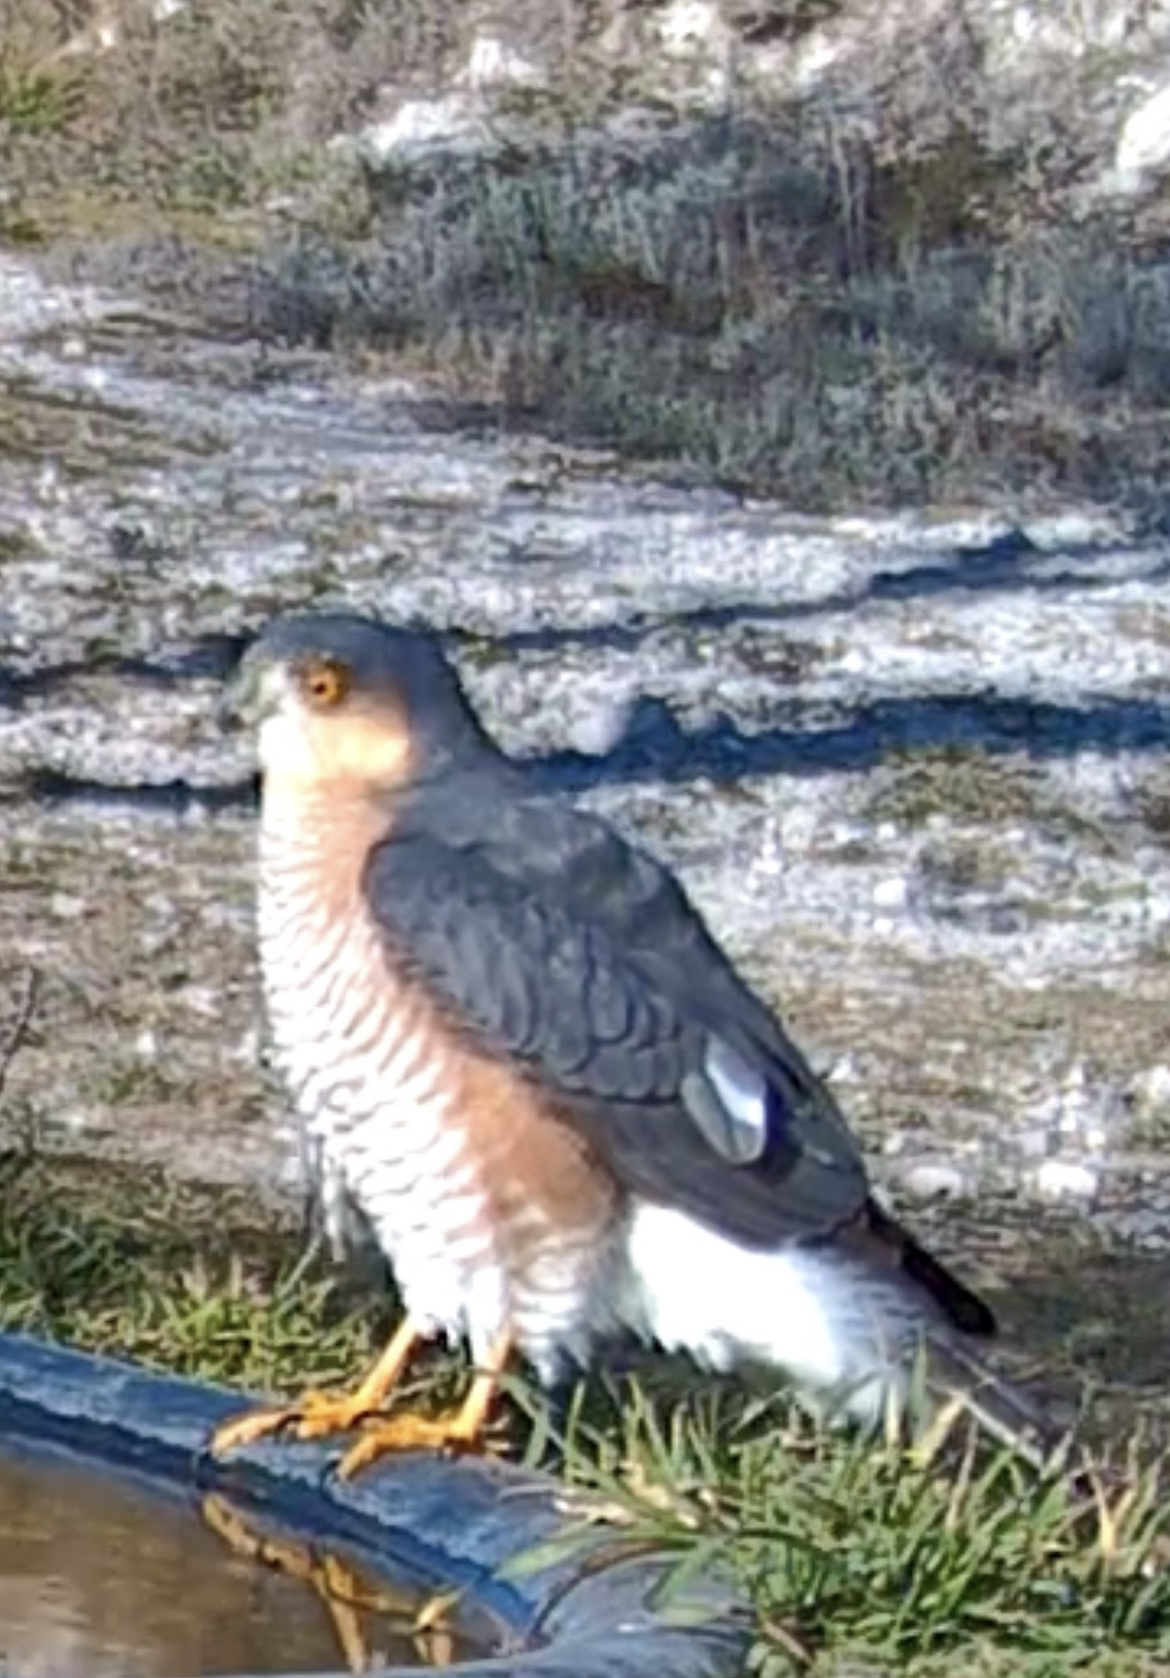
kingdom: Animalia
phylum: Chordata
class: Aves
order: Accipitriformes
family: Accipitridae
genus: Accipiter
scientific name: Accipiter nisus
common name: Eurasian sparrowhawk
